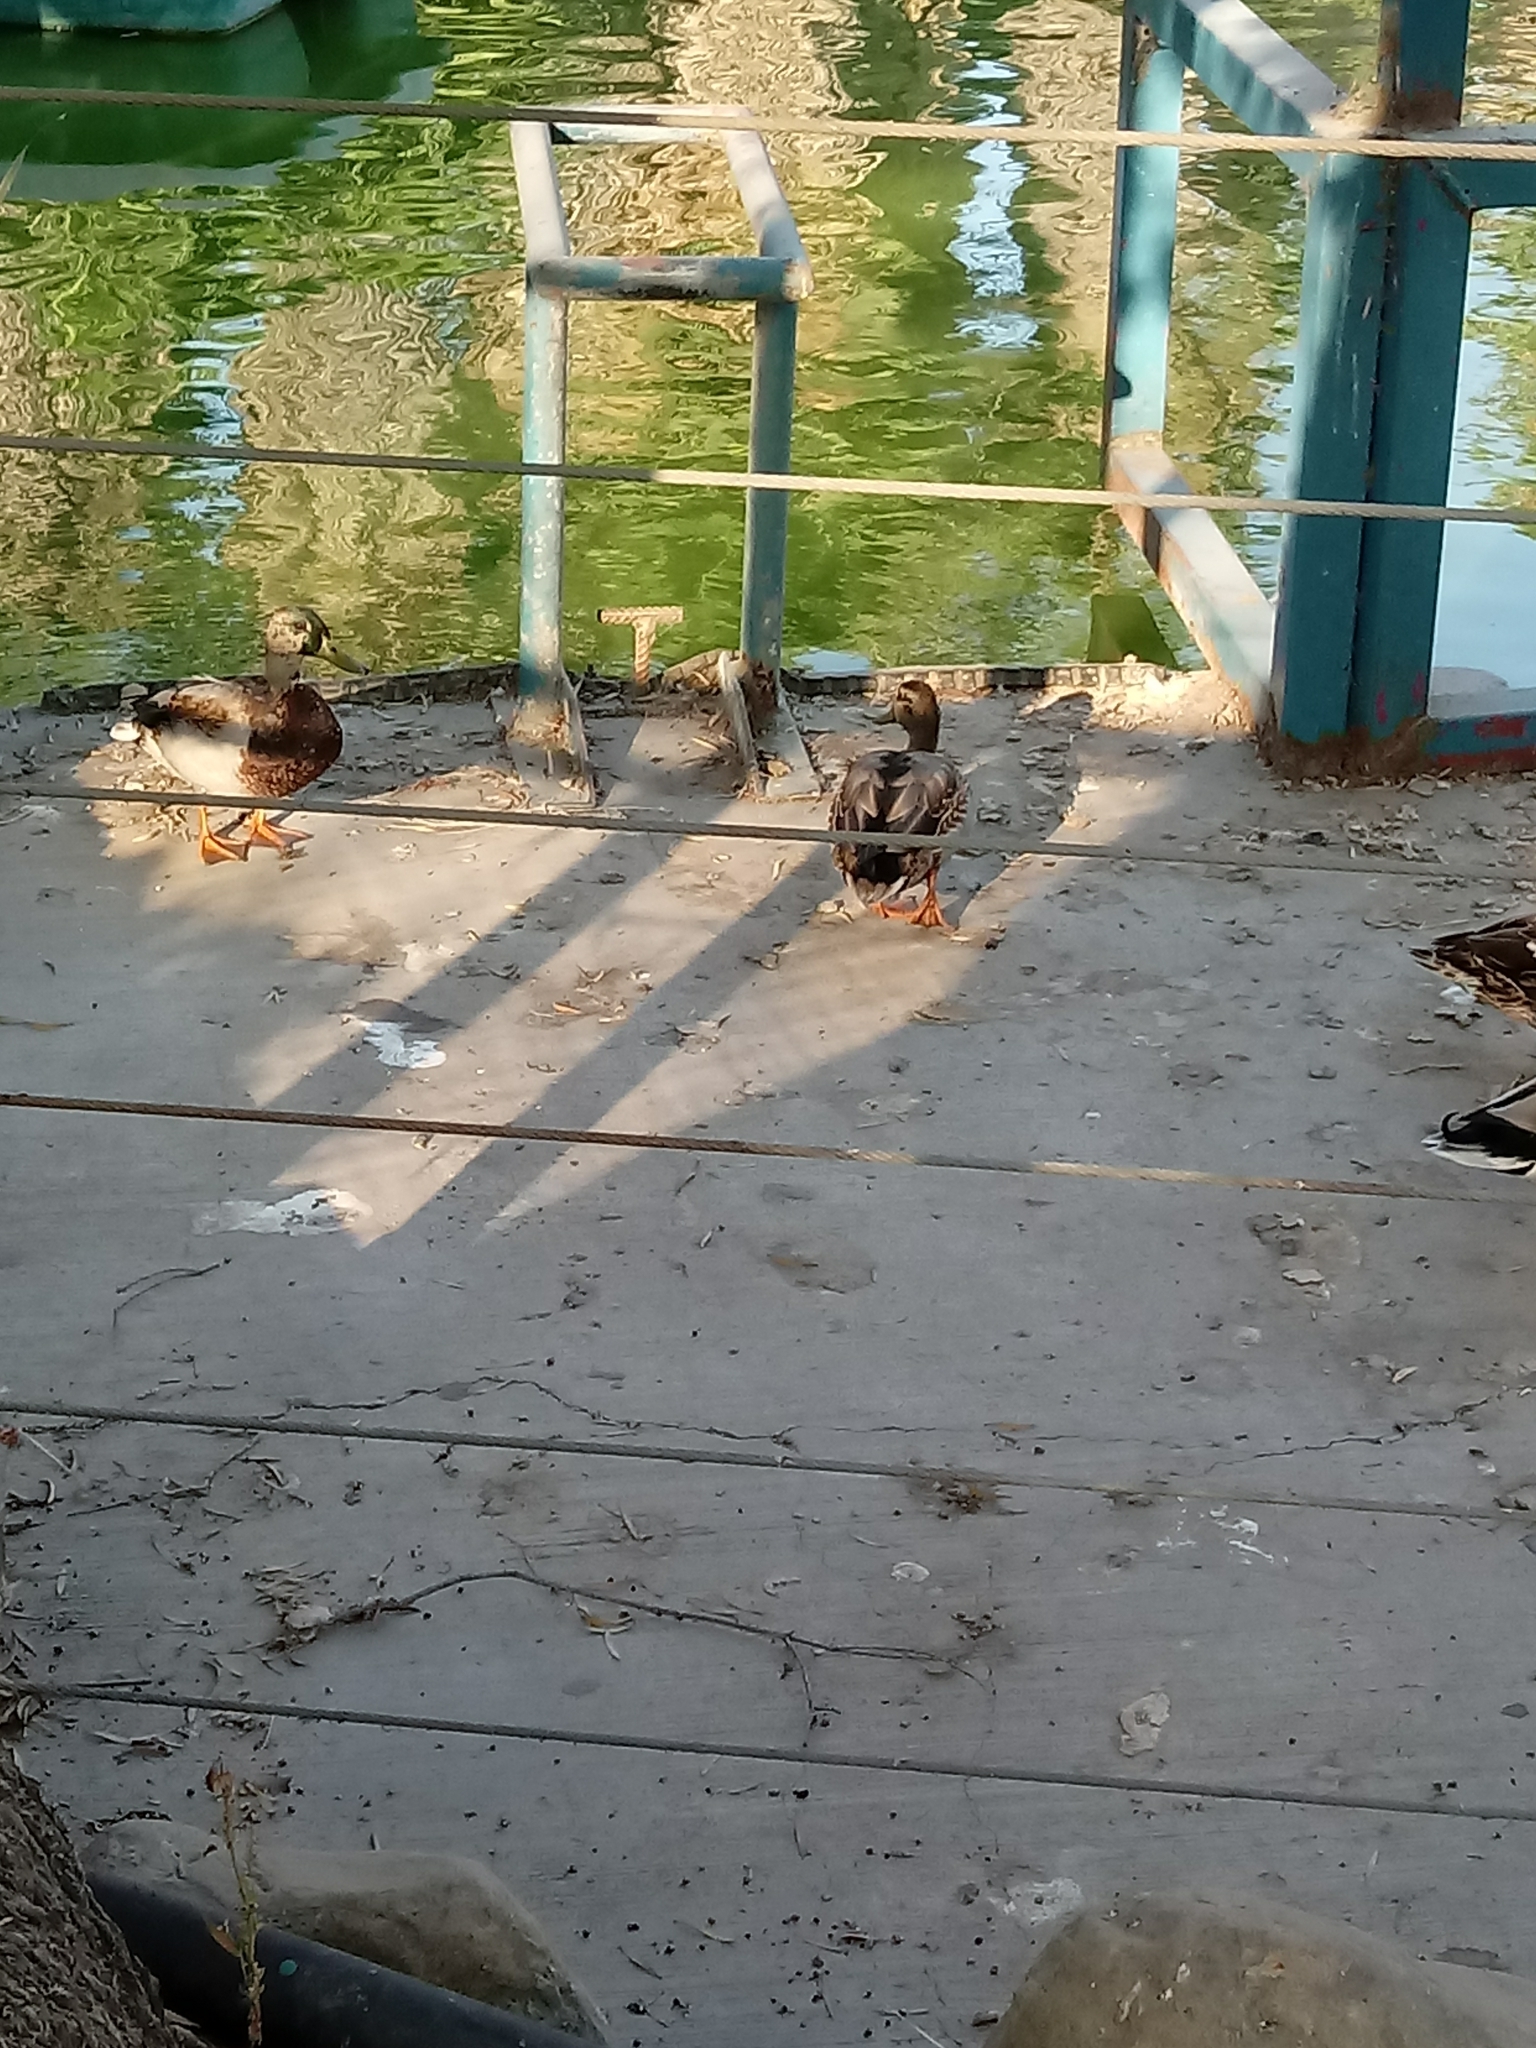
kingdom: Animalia
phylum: Chordata
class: Aves
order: Anseriformes
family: Anatidae
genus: Anas
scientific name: Anas platyrhynchos
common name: Mallard
